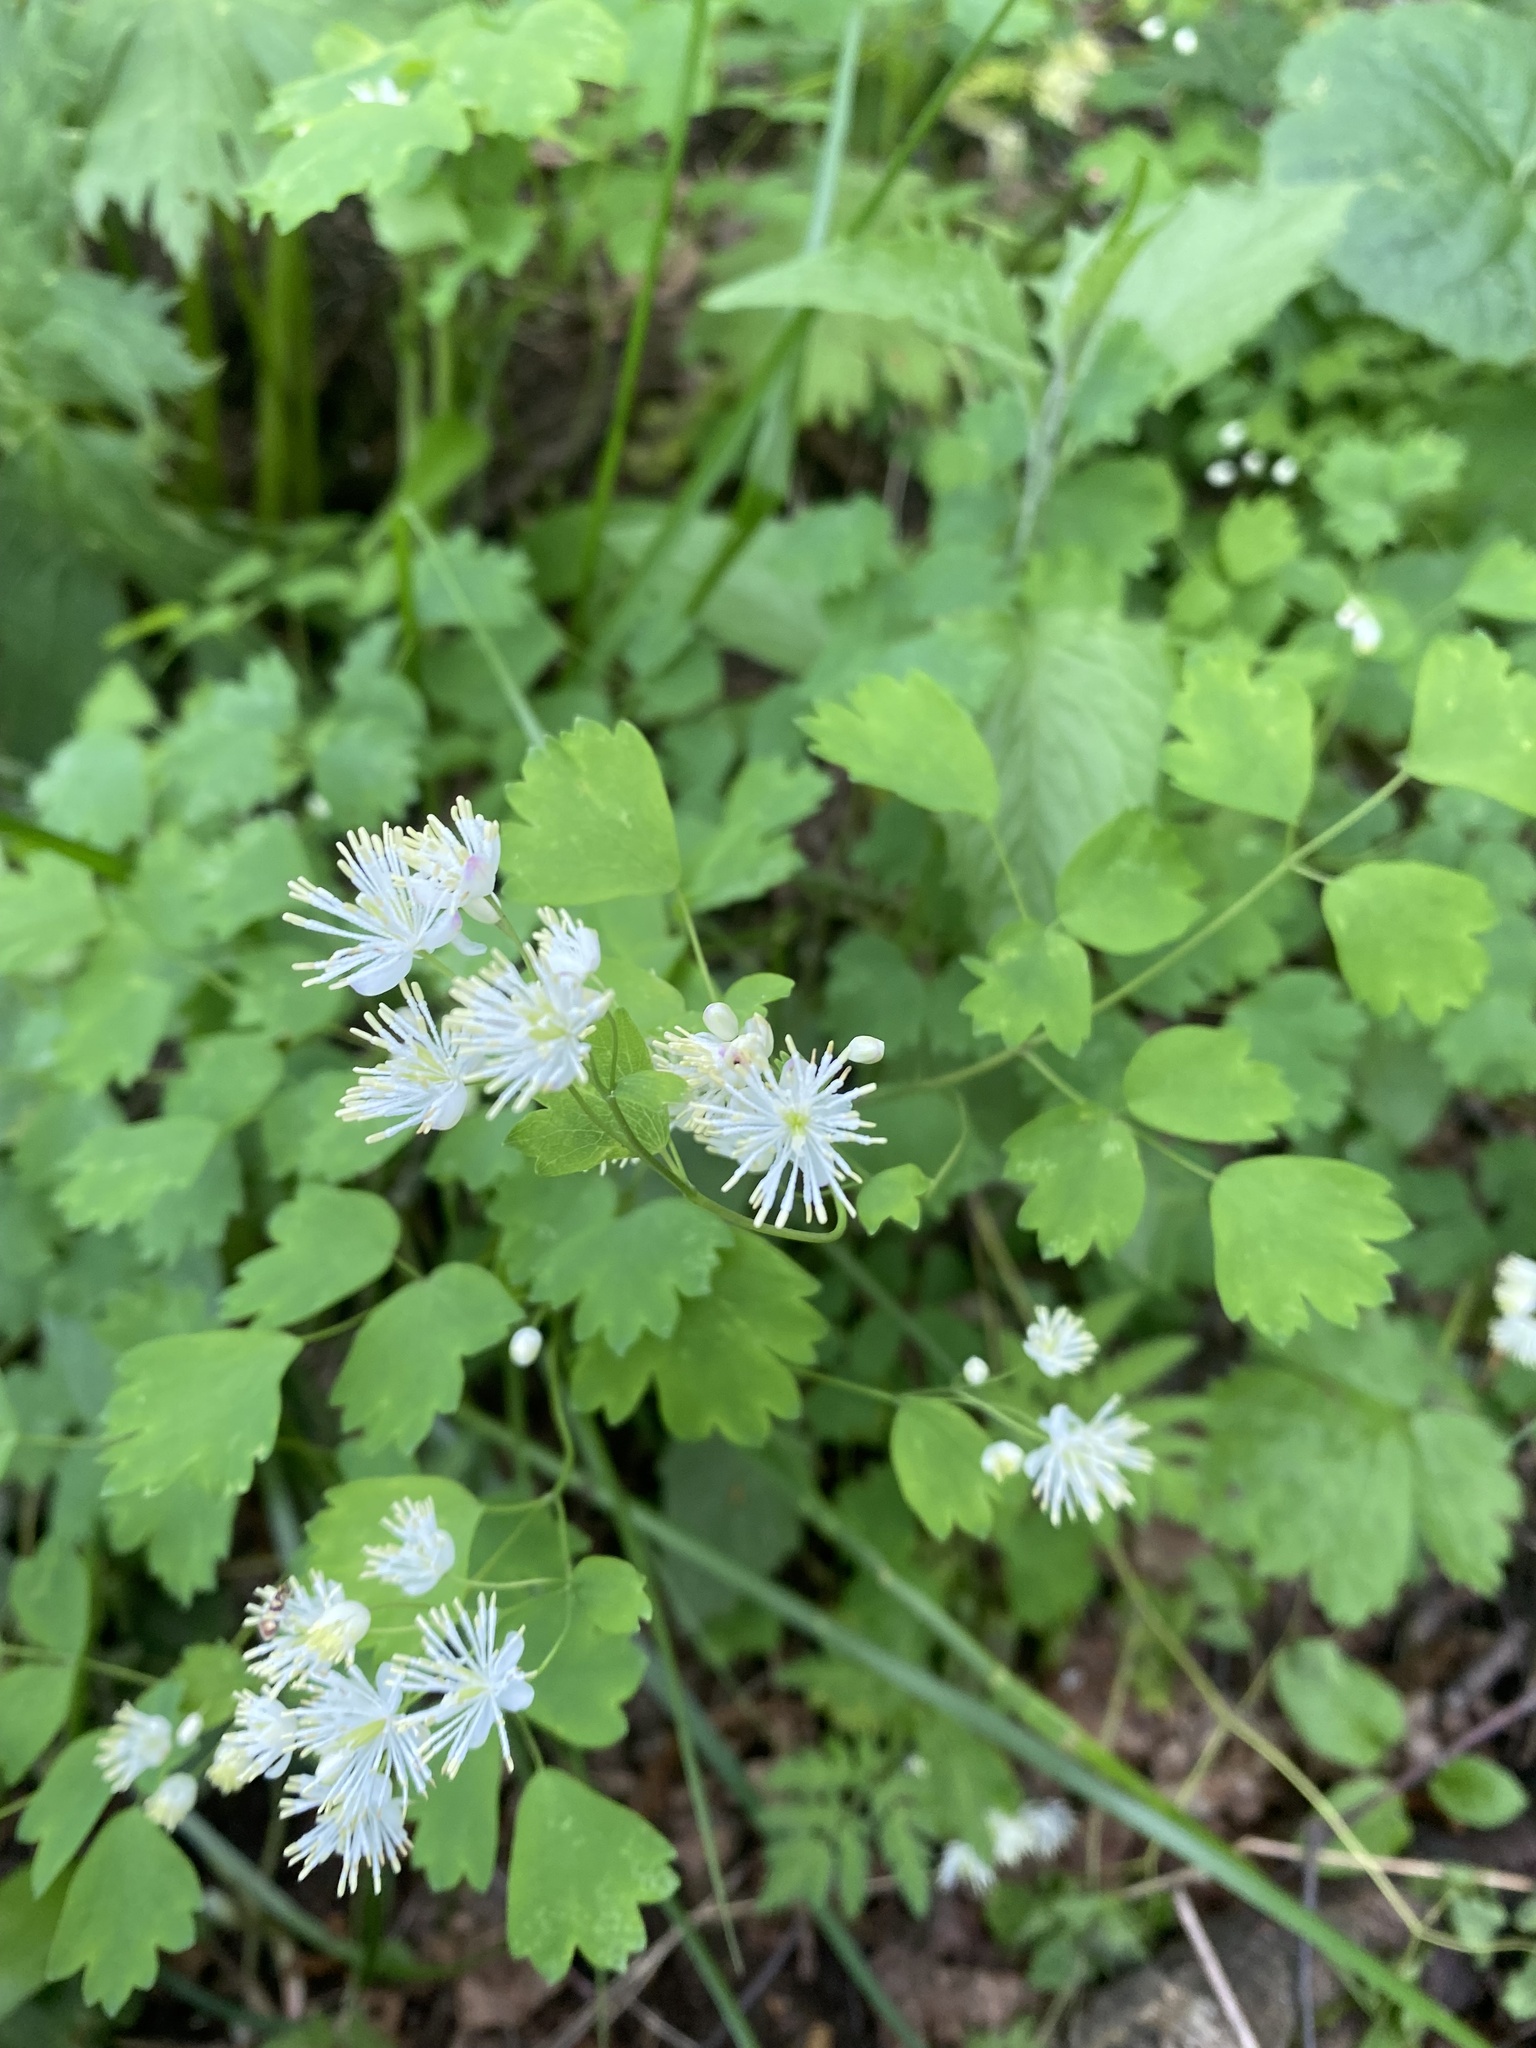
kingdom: Plantae
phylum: Tracheophyta
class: Magnoliopsida
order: Ranunculales
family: Ranunculaceae
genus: Thalictrum
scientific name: Thalictrum aquilegiifolium
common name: French meadow-rue
